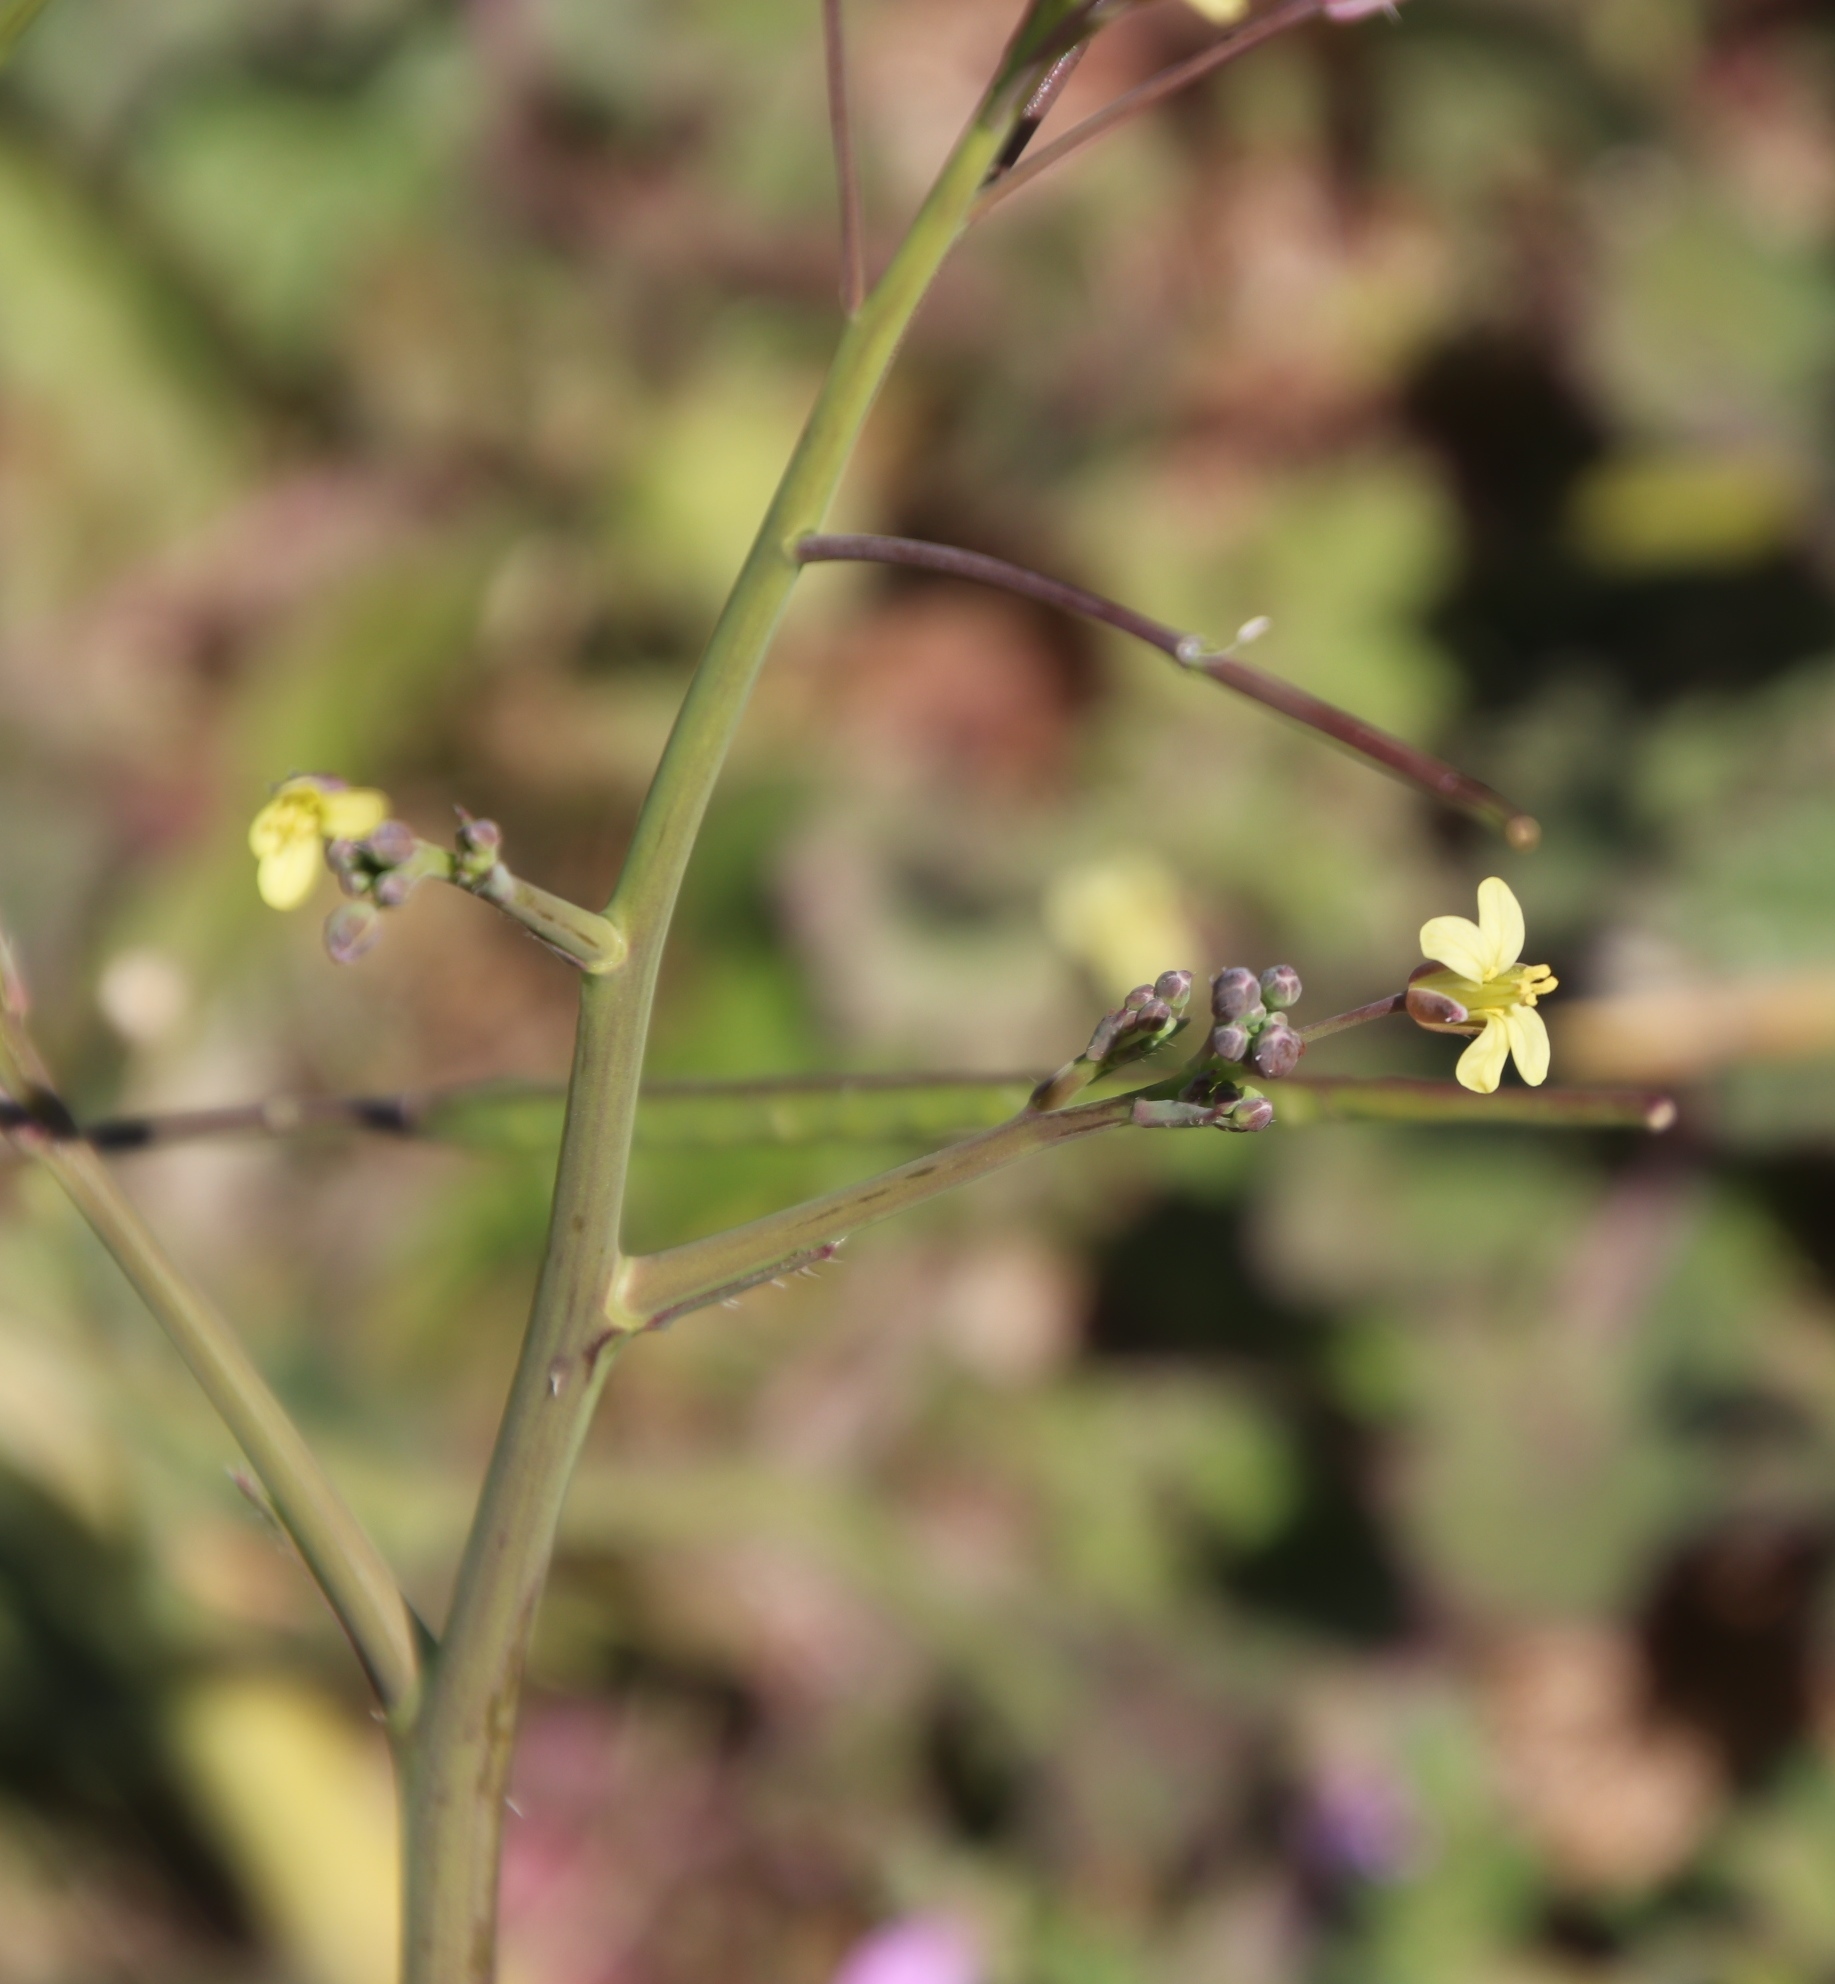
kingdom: Plantae
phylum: Tracheophyta
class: Magnoliopsida
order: Brassicales
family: Brassicaceae
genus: Brassica
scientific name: Brassica tournefortii
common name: Pale cabbage
